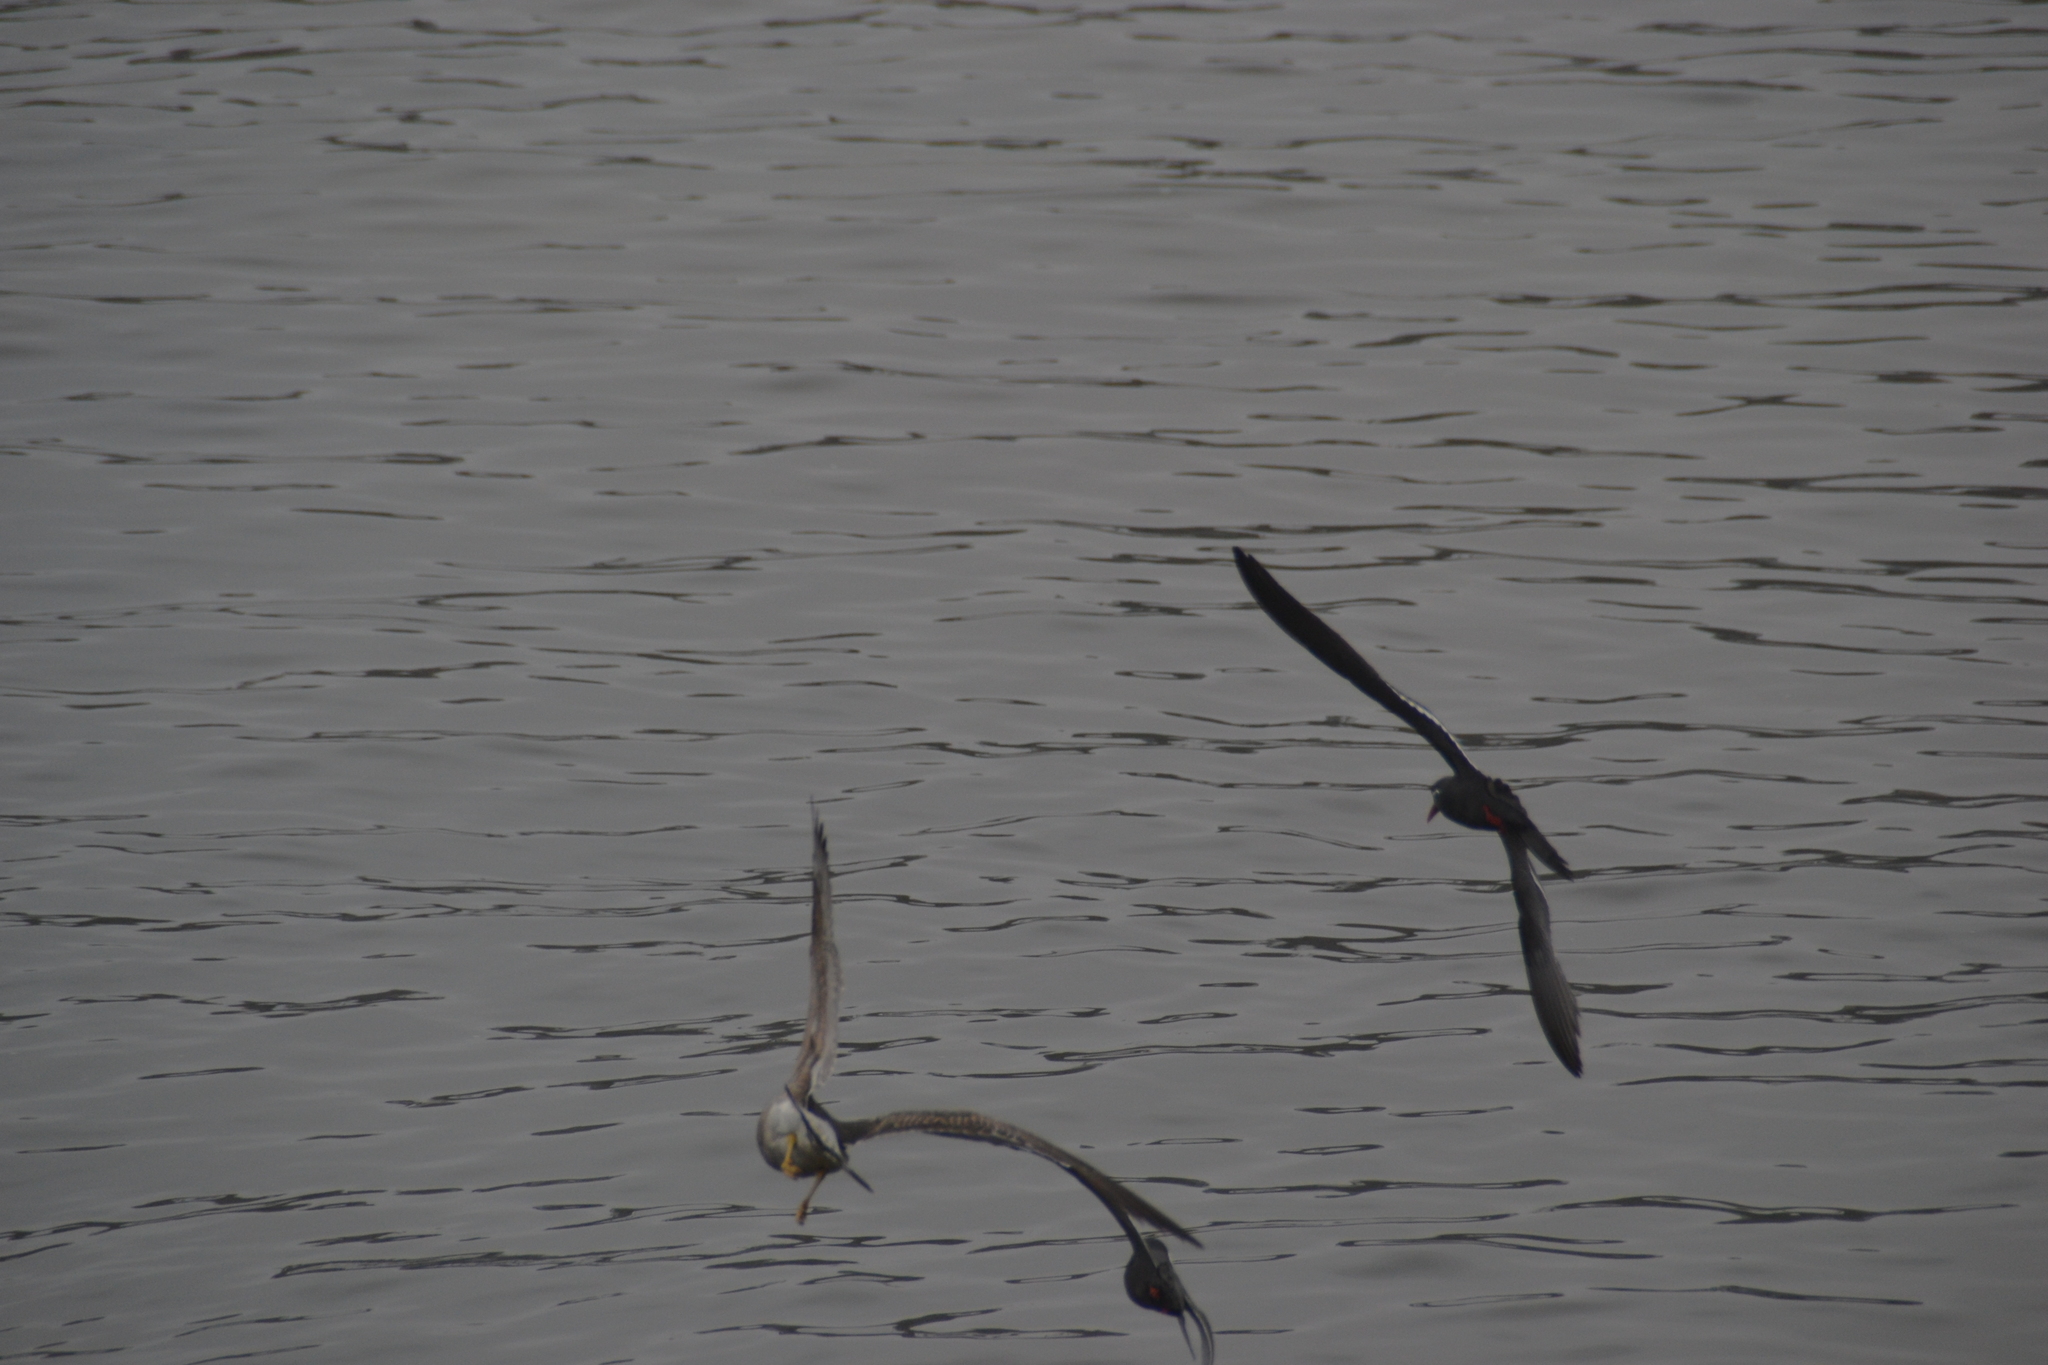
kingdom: Animalia
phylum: Chordata
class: Aves
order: Charadriiformes
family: Laridae
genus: Larus
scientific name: Larus belcheri
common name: Belcher's gull
